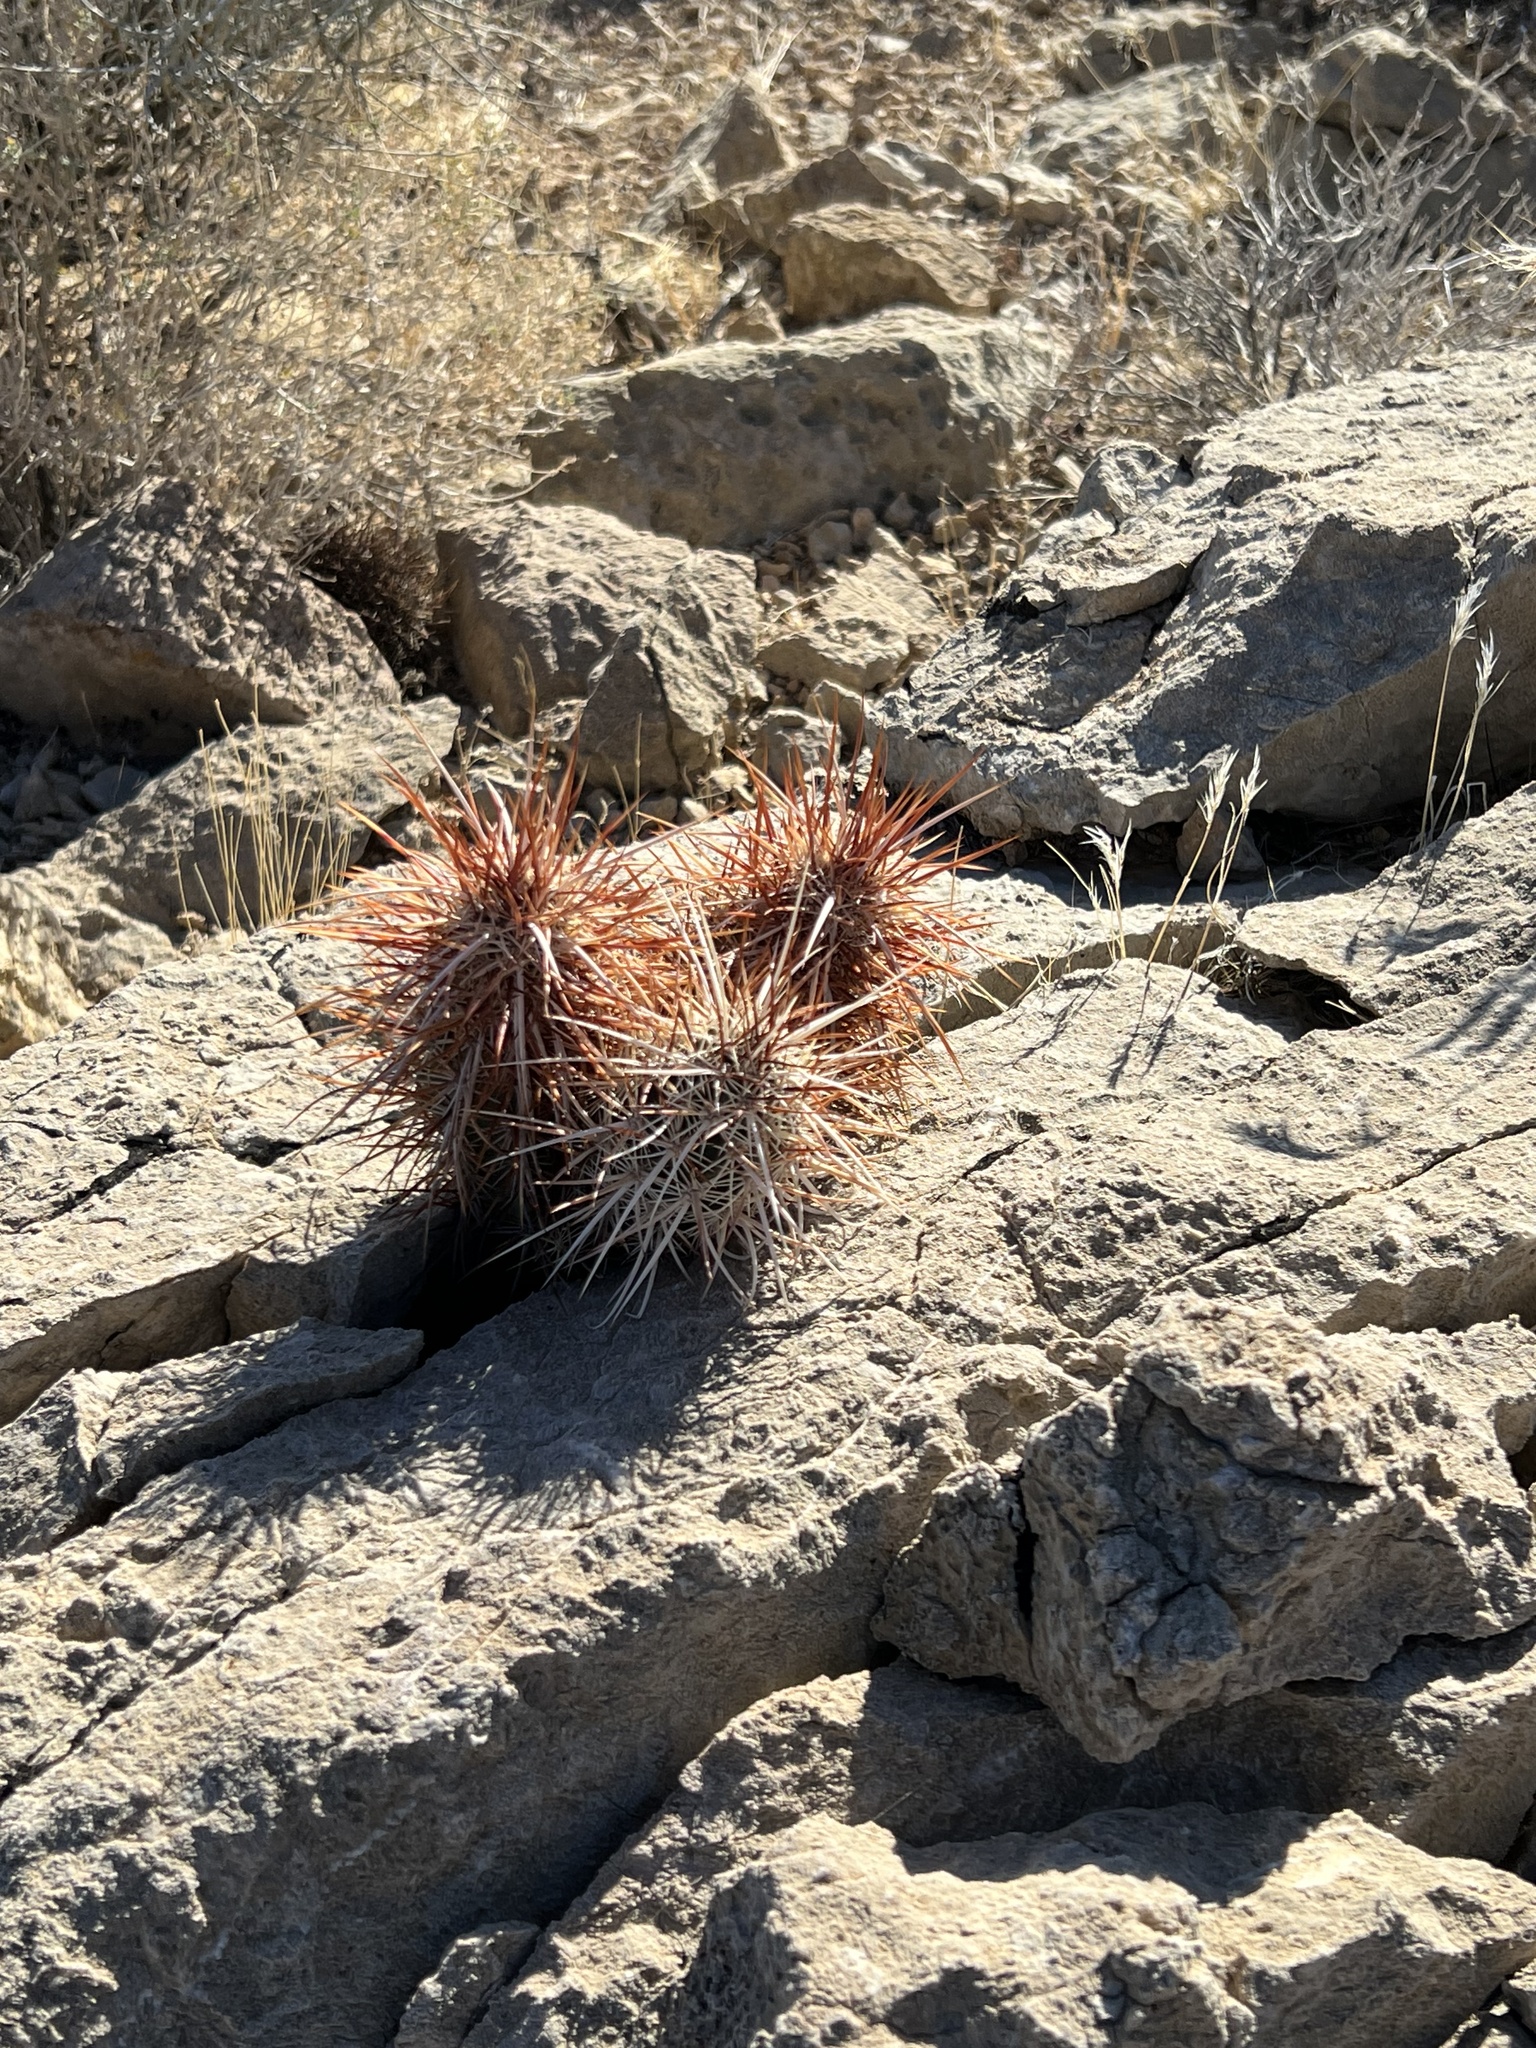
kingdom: Plantae
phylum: Tracheophyta
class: Magnoliopsida
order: Caryophyllales
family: Cactaceae
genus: Echinocereus
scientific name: Echinocereus engelmannii
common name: Engelmann's hedgehog cactus
